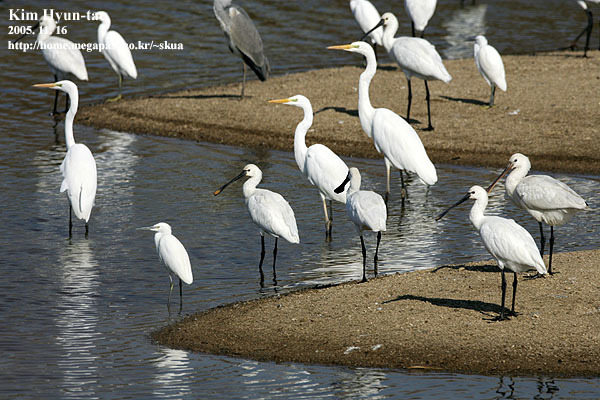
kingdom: Animalia
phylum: Chordata
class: Aves
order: Pelecaniformes
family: Threskiornithidae
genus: Platalea
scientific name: Platalea leucorodia
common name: Eurasian spoonbill
